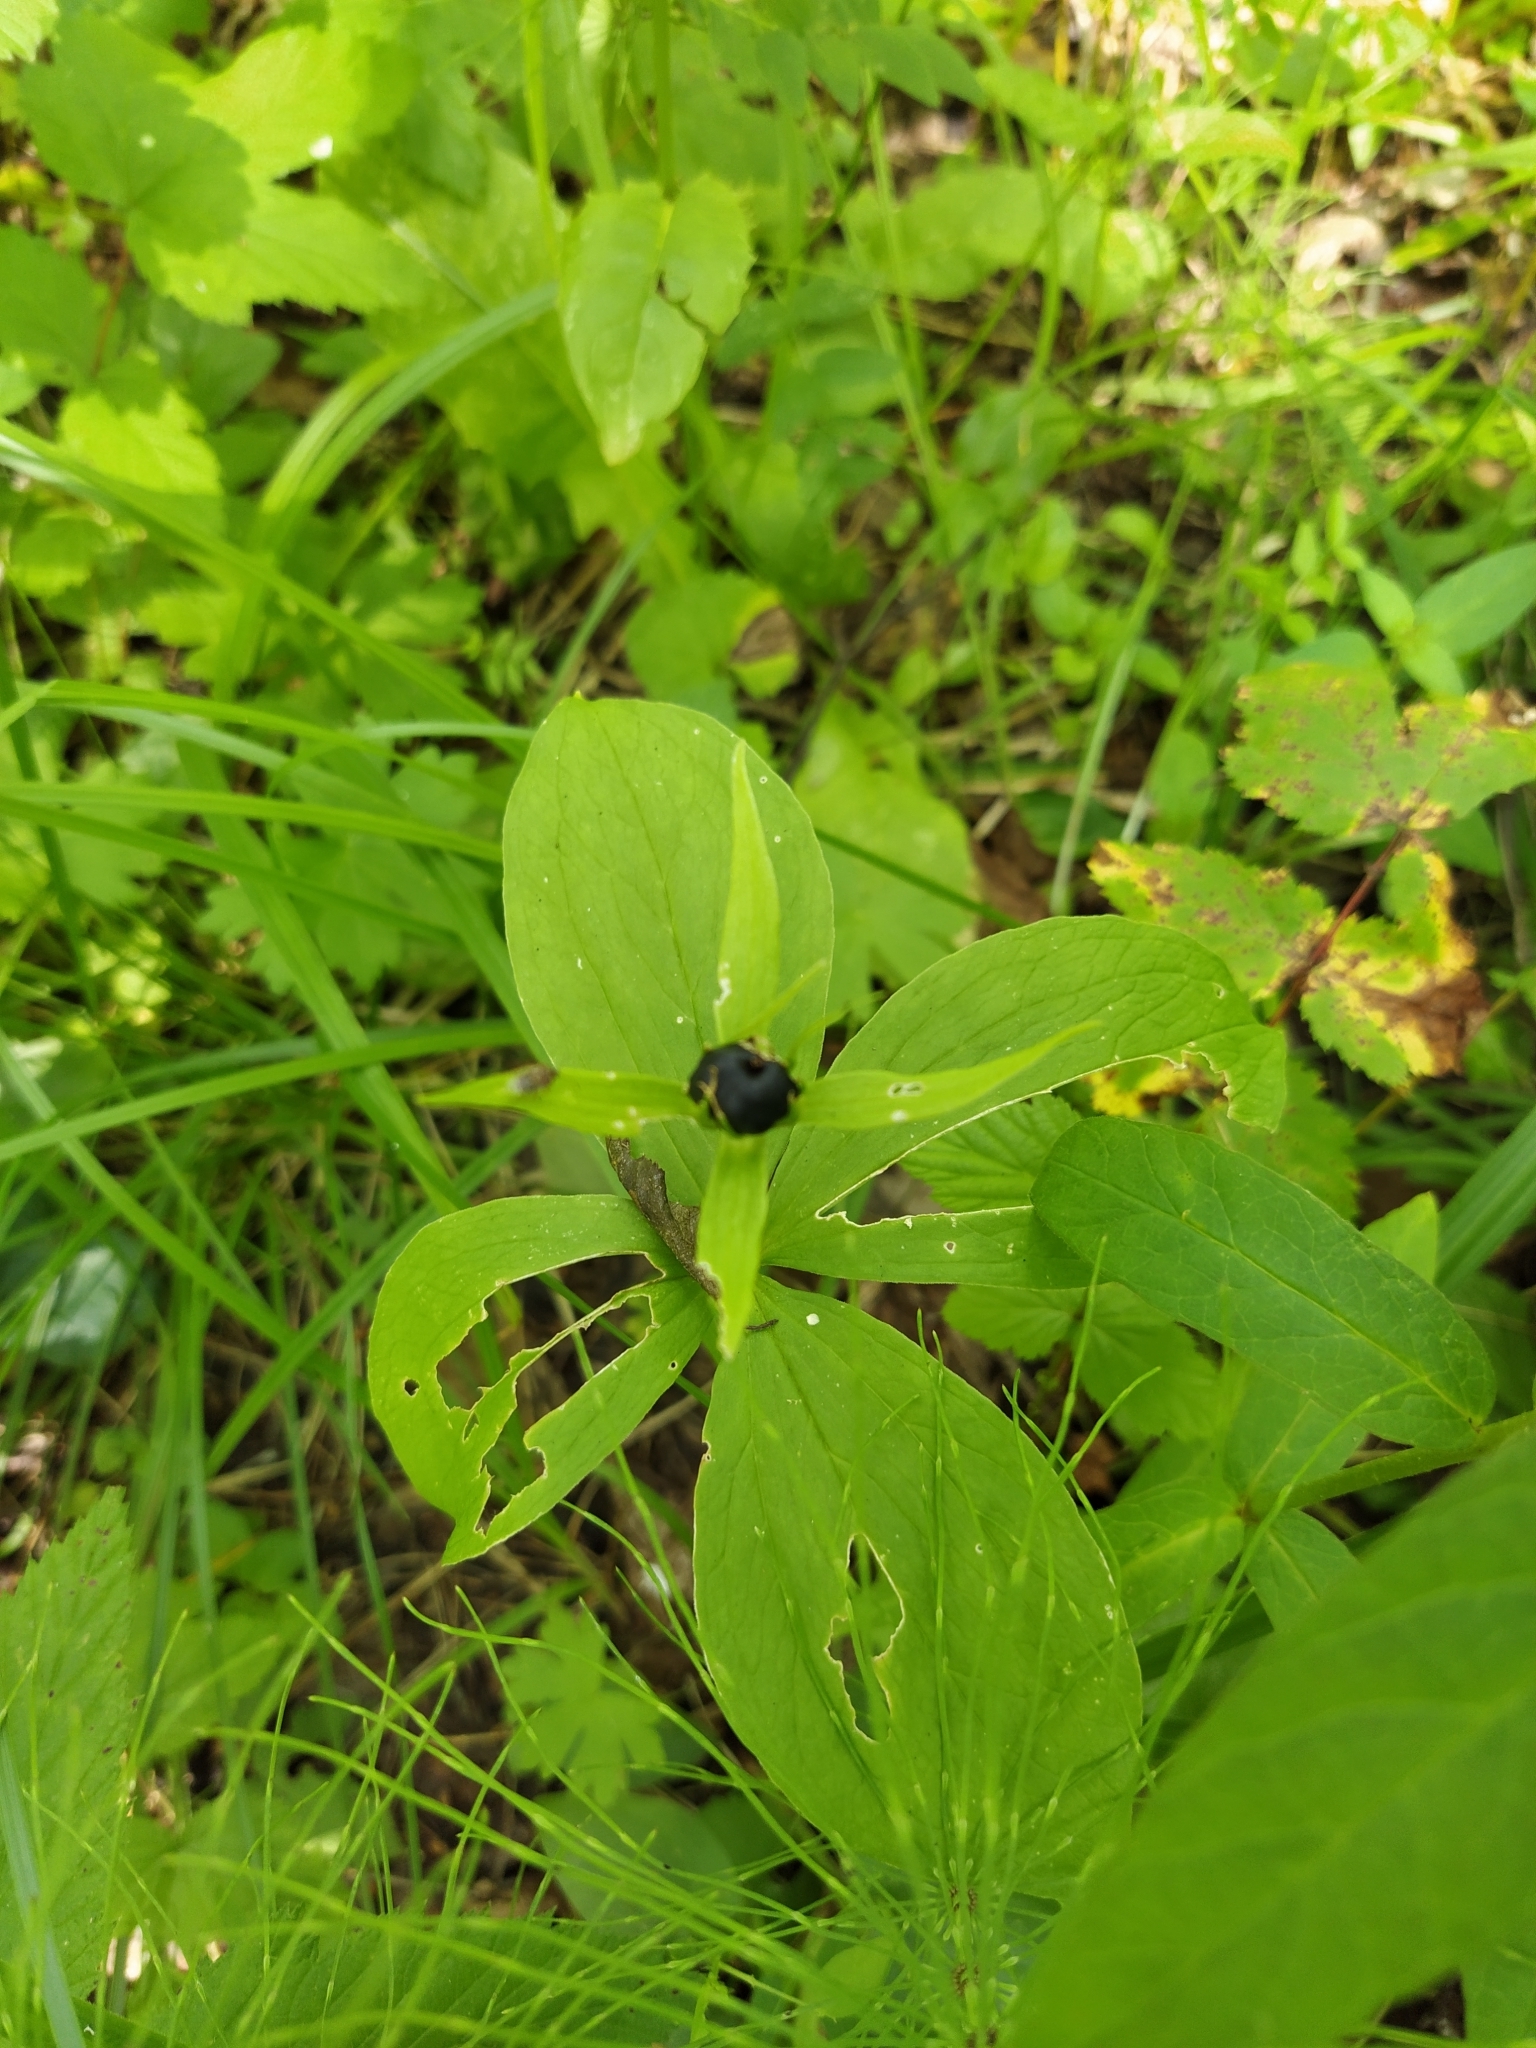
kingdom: Plantae
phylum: Tracheophyta
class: Liliopsida
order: Liliales
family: Melanthiaceae
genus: Paris
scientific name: Paris quadrifolia
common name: Herb-paris
